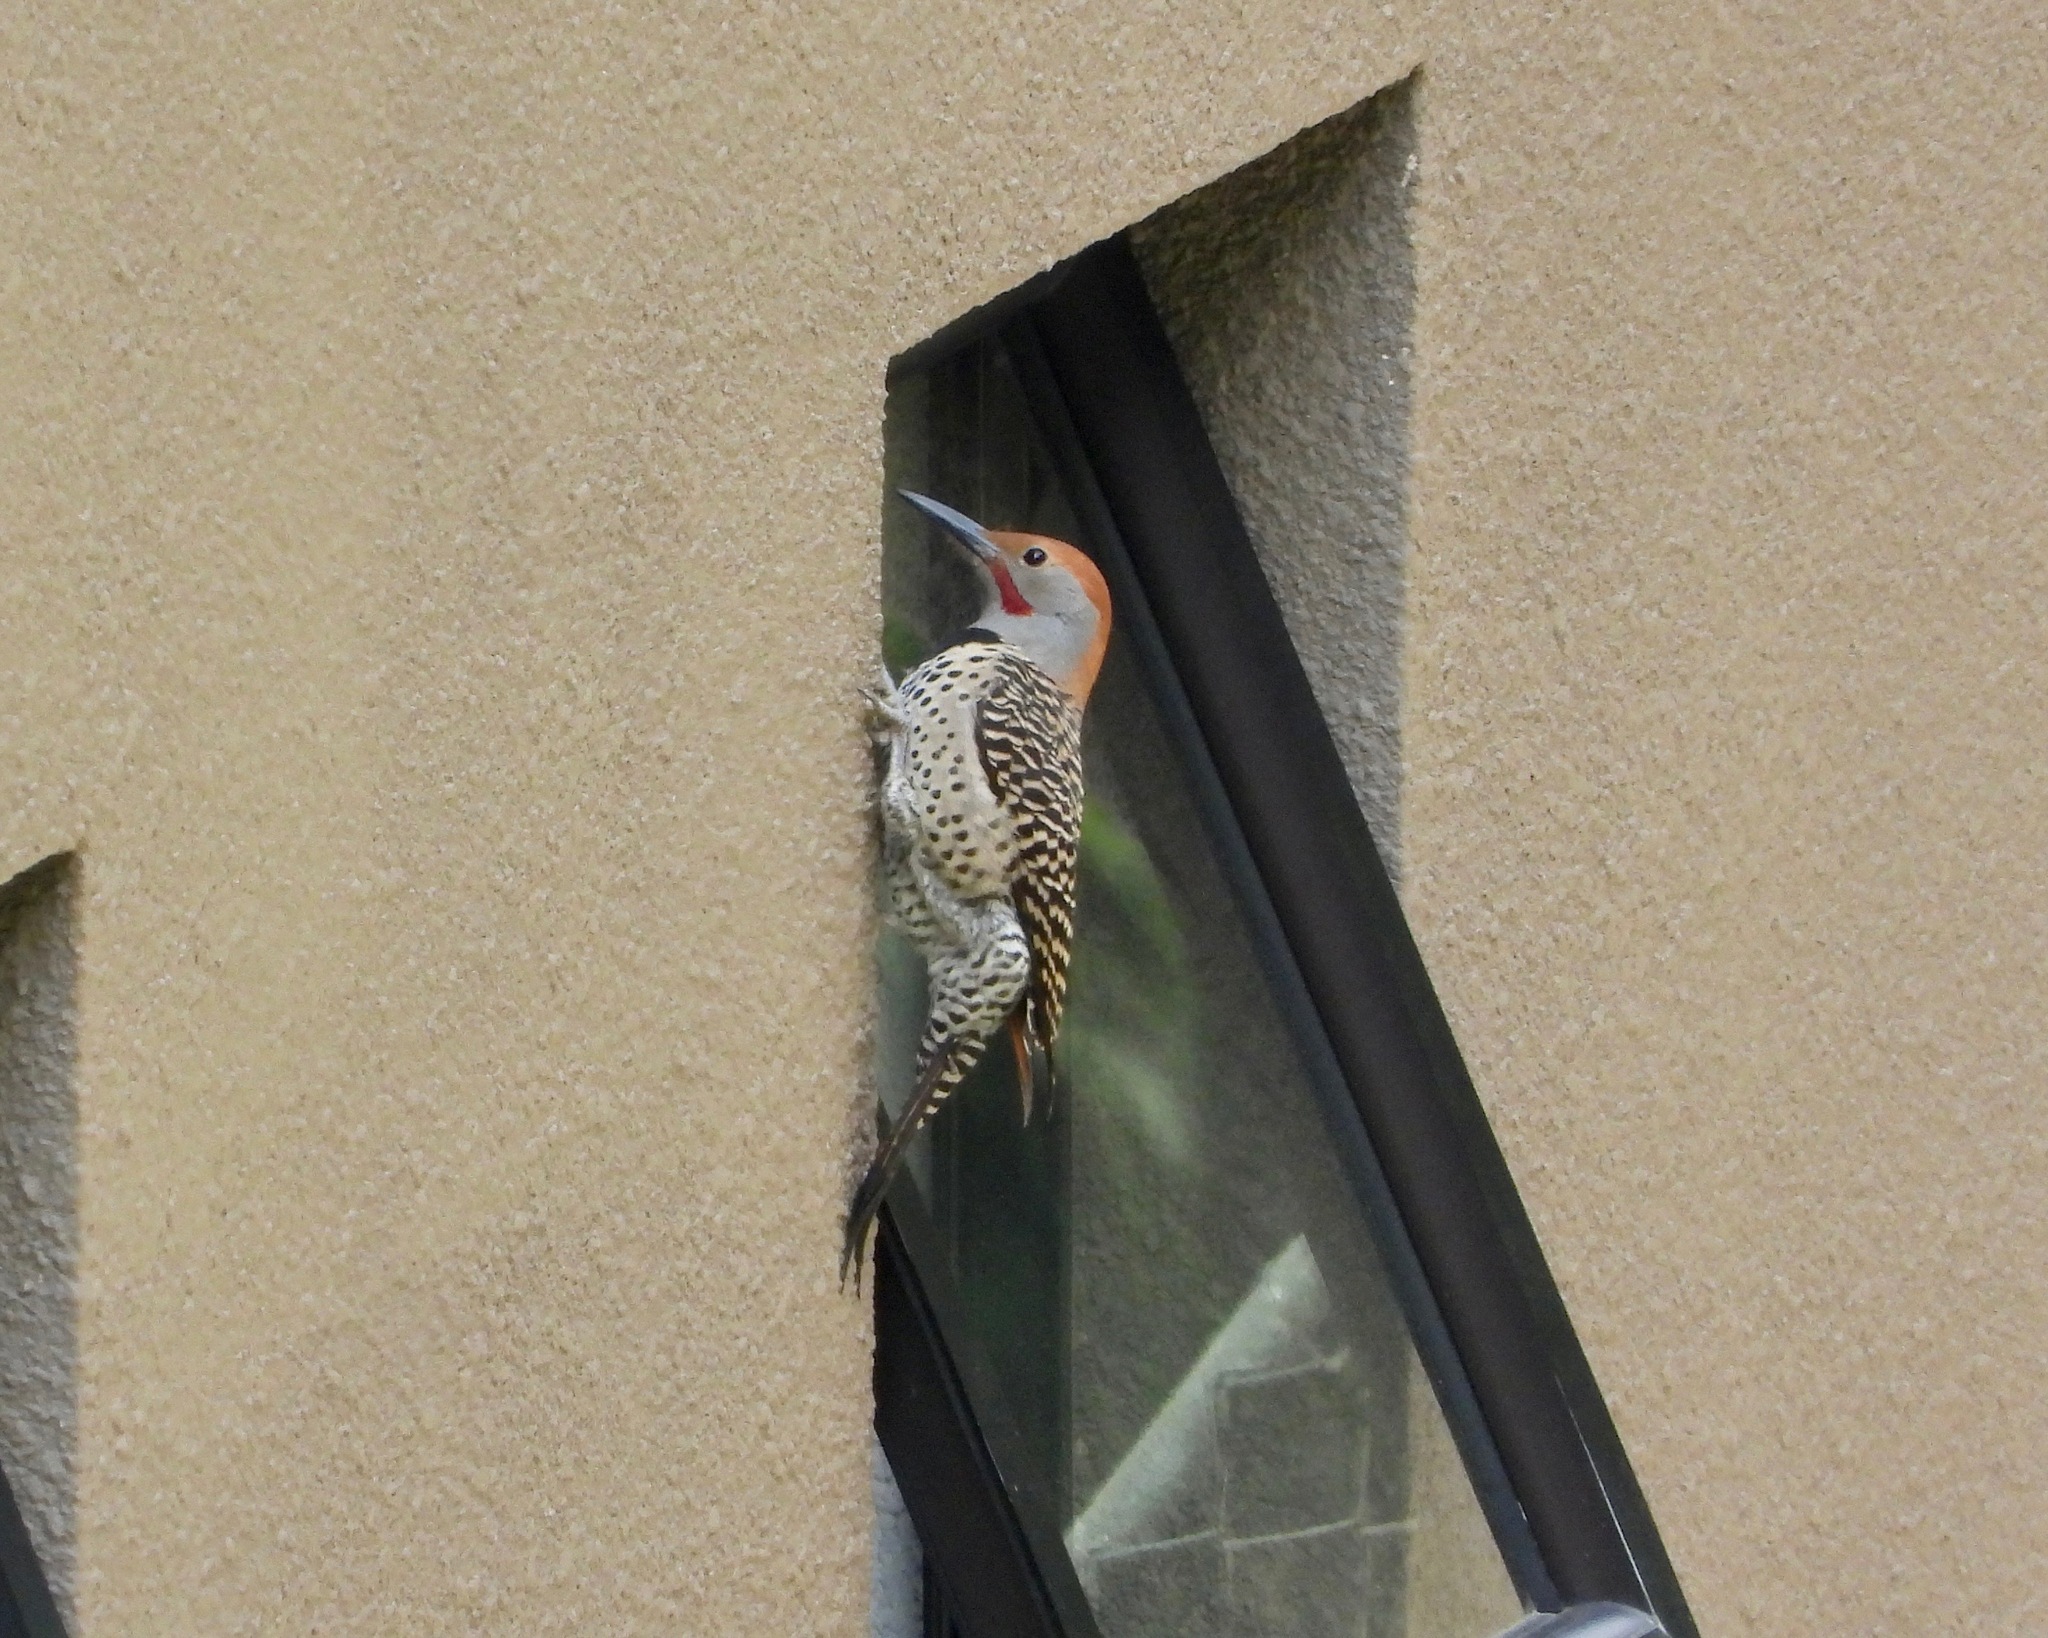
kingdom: Animalia
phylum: Chordata
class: Aves
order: Piciformes
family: Picidae
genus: Colaptes
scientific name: Colaptes auratus
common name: Northern flicker
